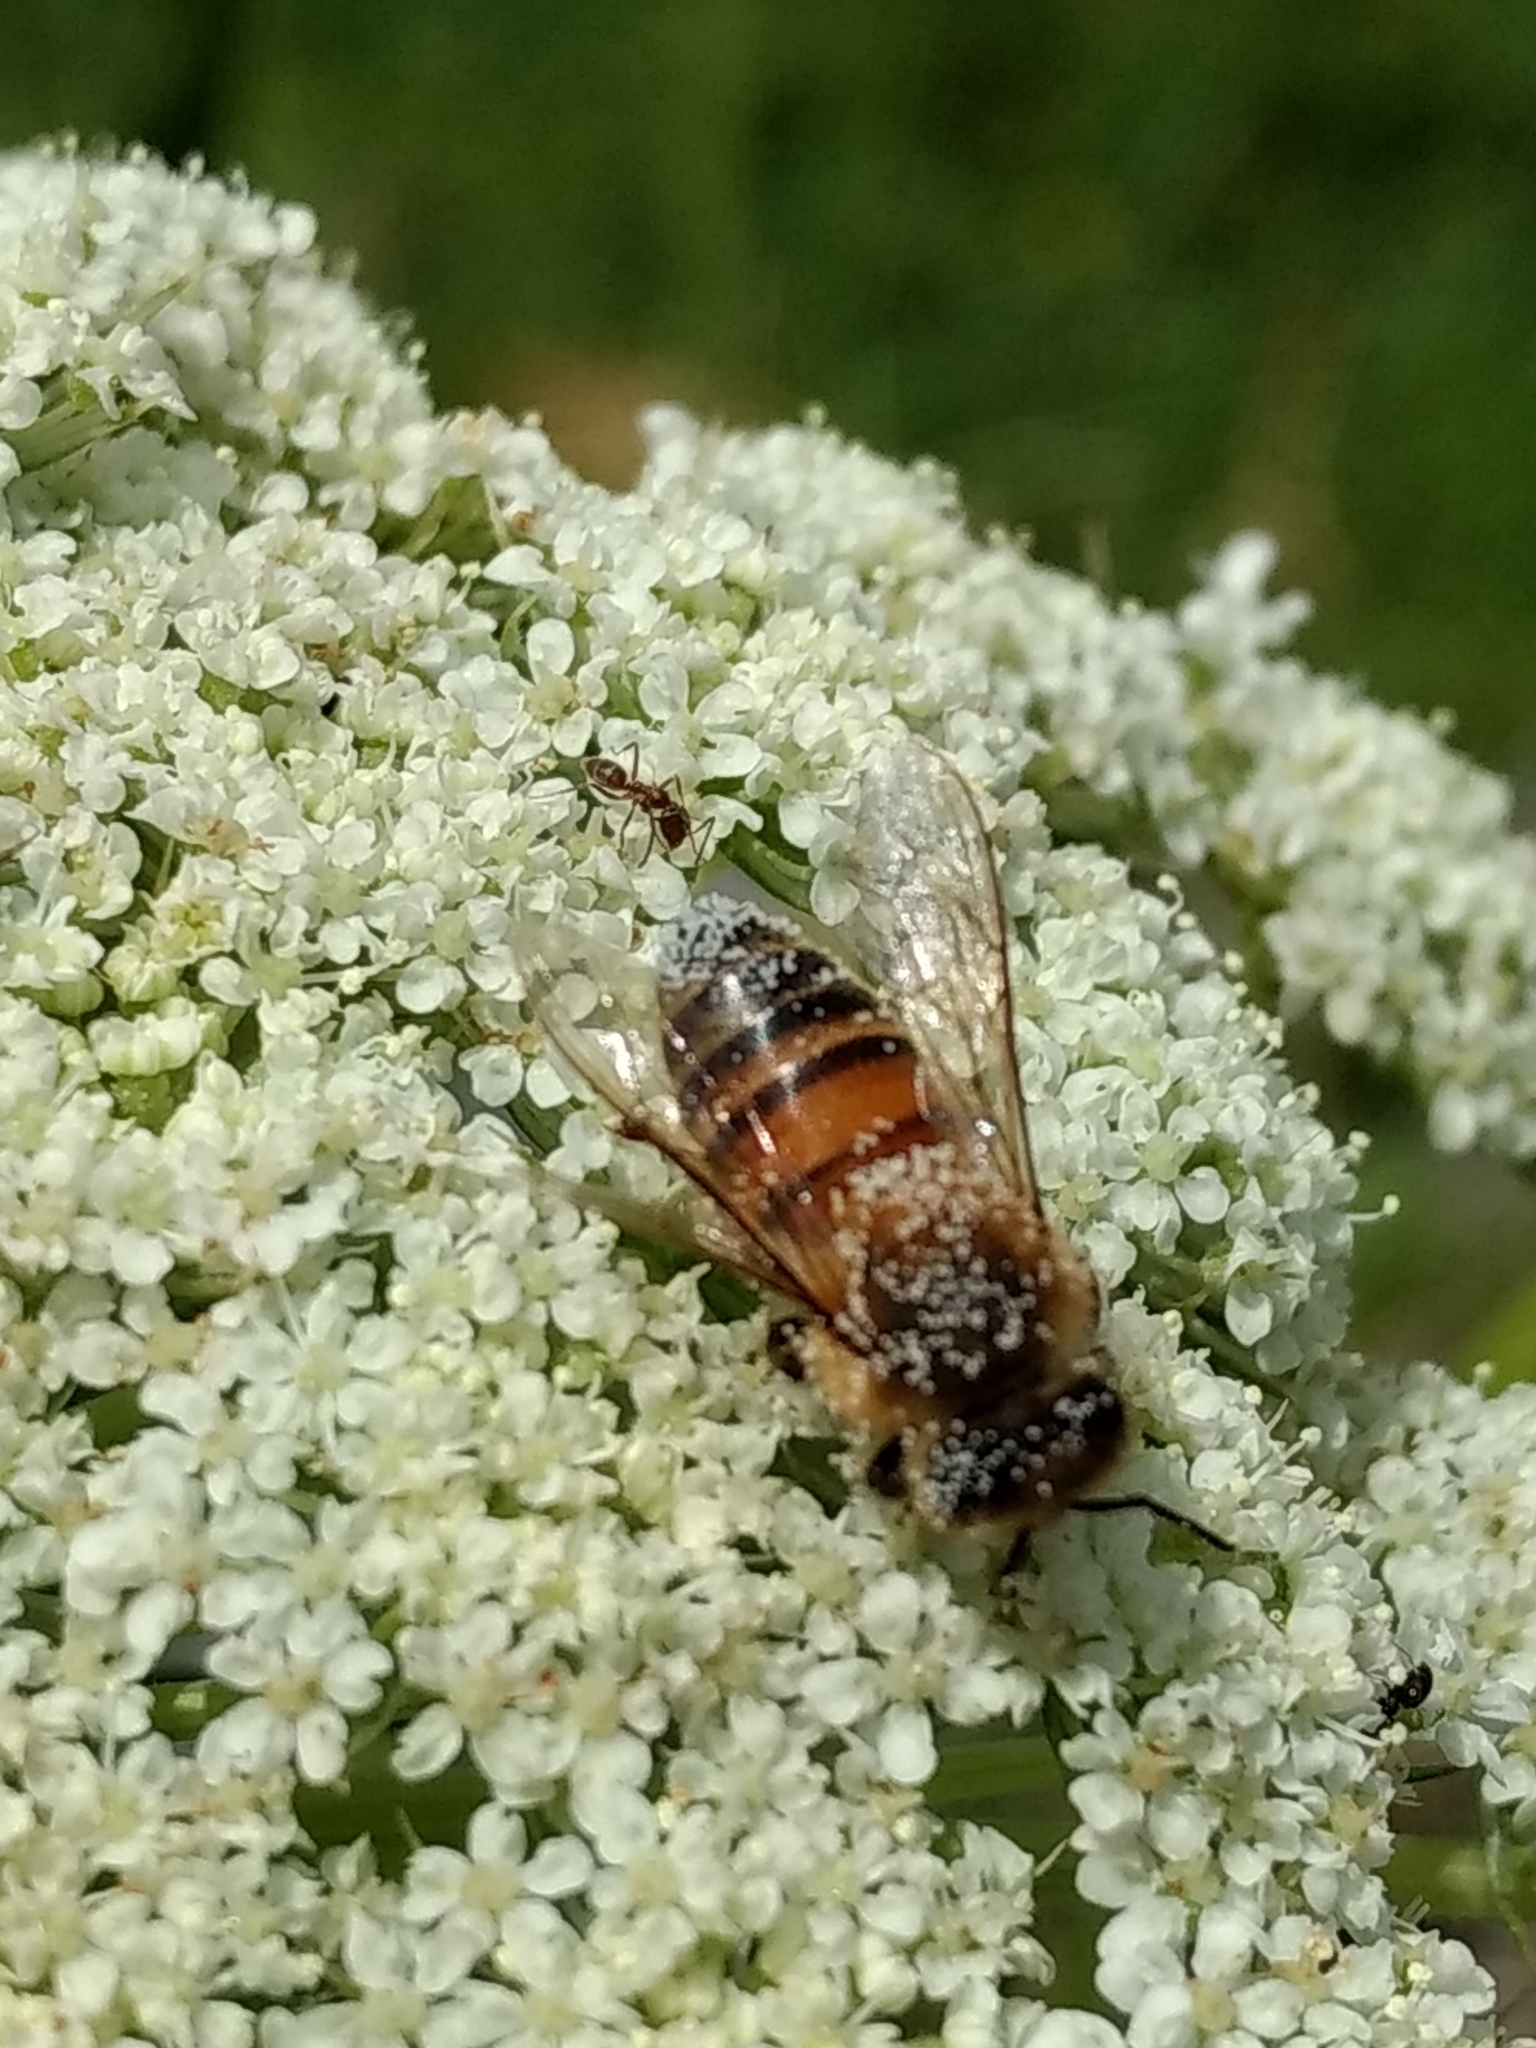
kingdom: Animalia
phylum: Arthropoda
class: Insecta
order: Hymenoptera
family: Apidae
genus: Apis
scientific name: Apis mellifera
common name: Honey bee
